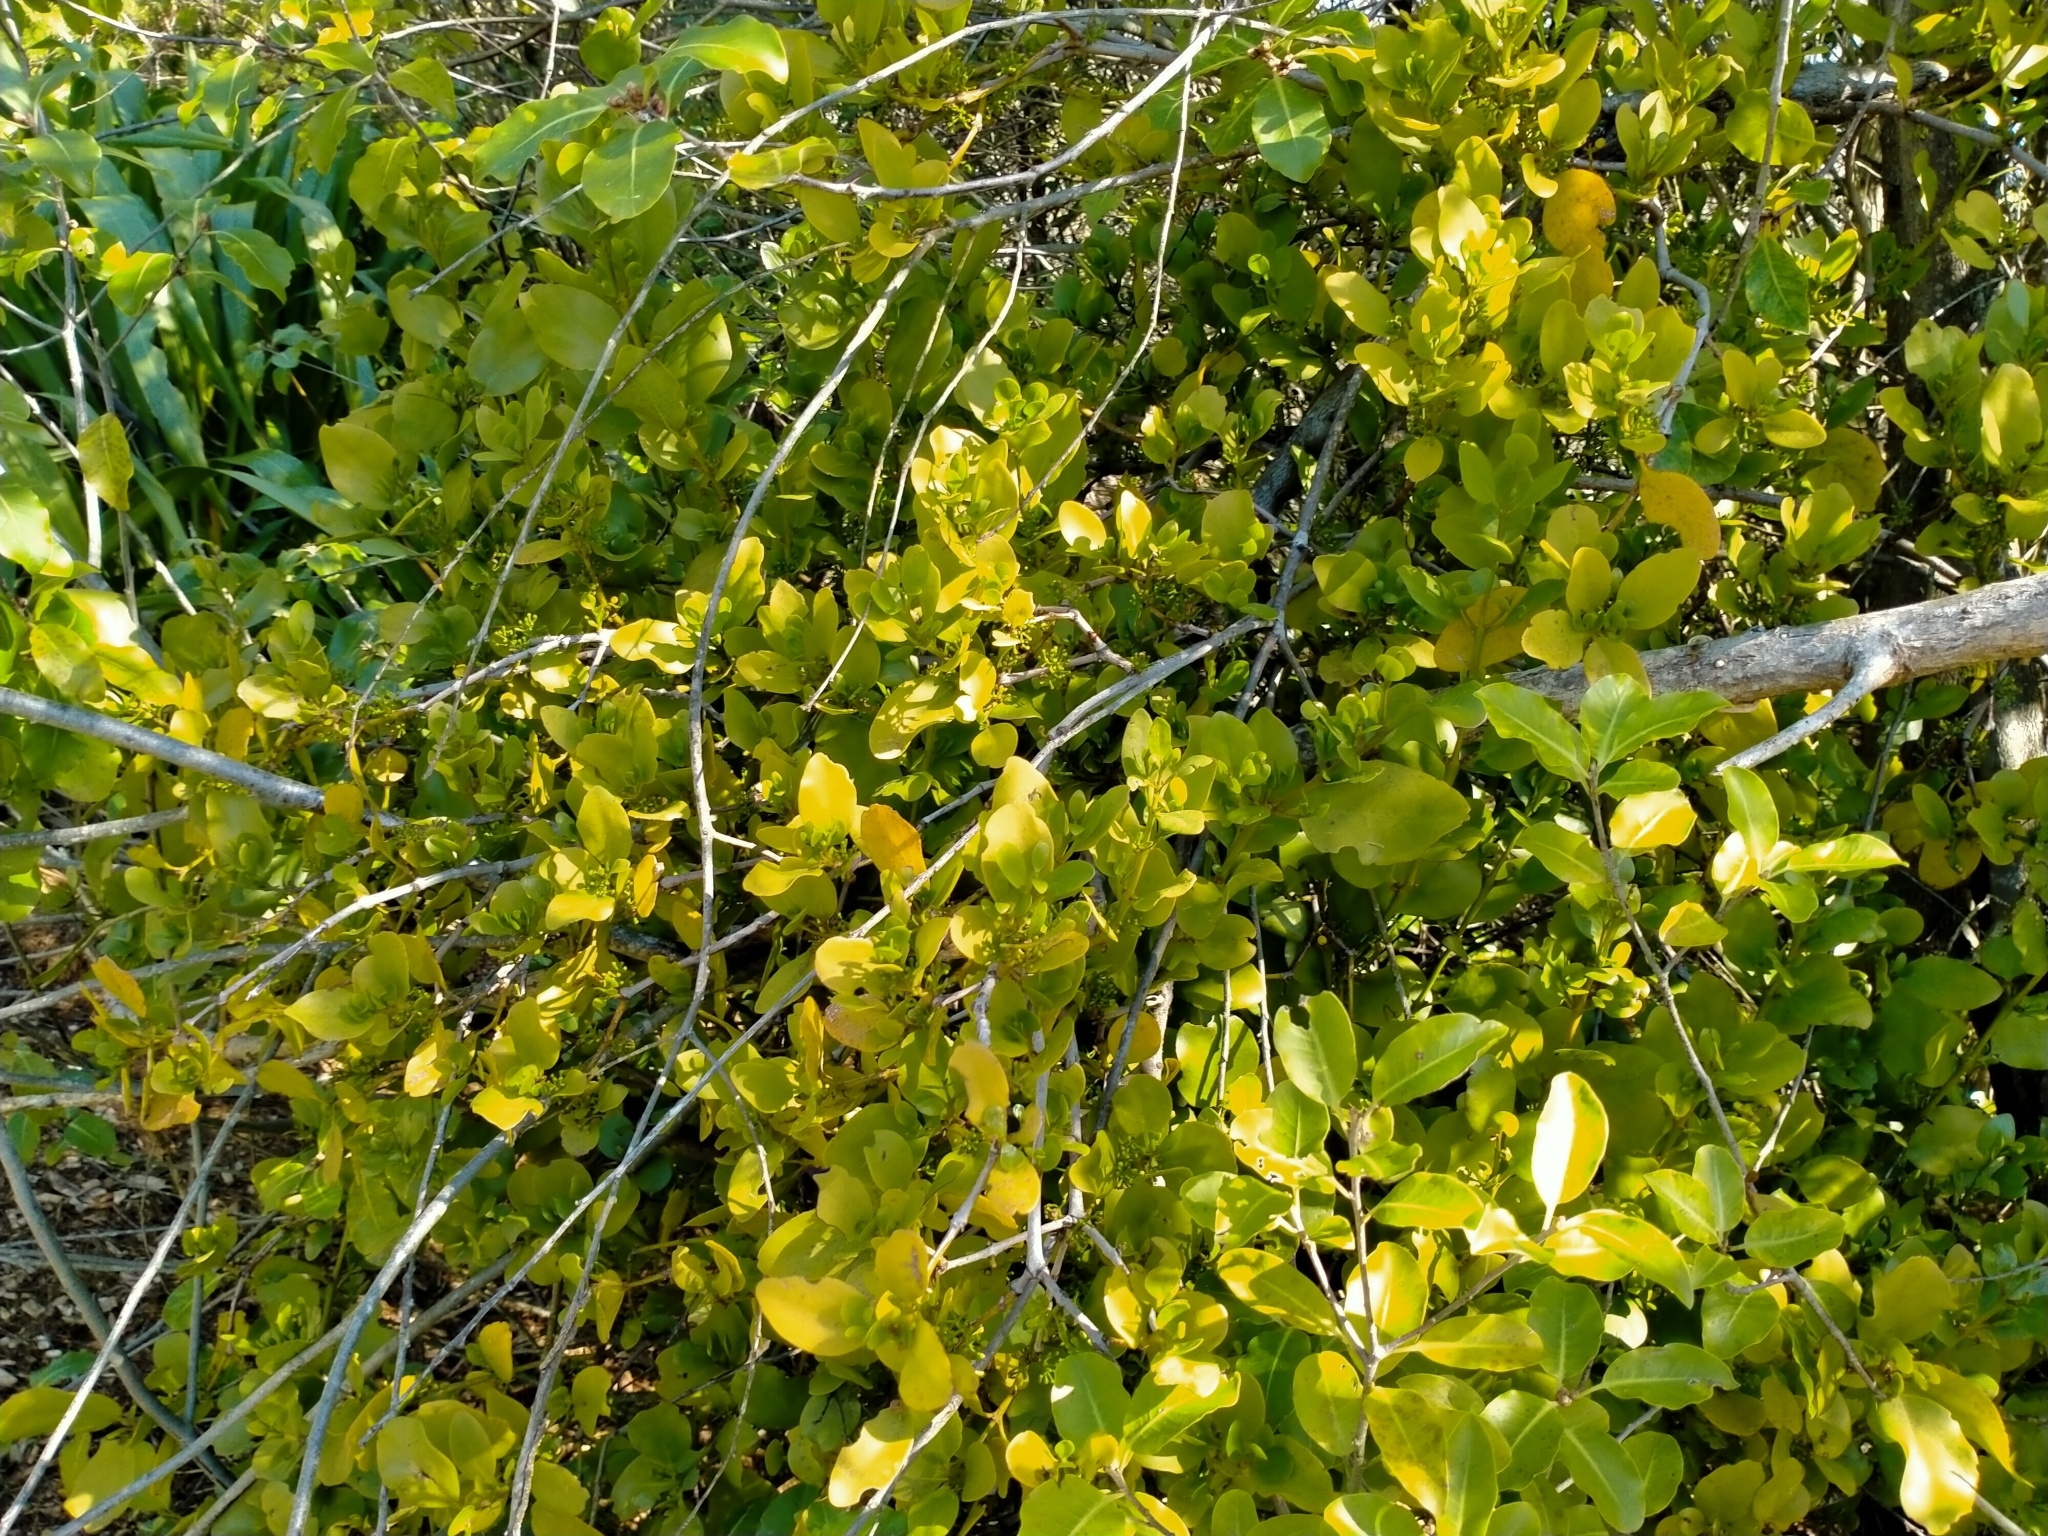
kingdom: Plantae
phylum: Tracheophyta
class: Magnoliopsida
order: Santalales
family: Loranthaceae
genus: Ileostylus
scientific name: Ileostylus micranthus
